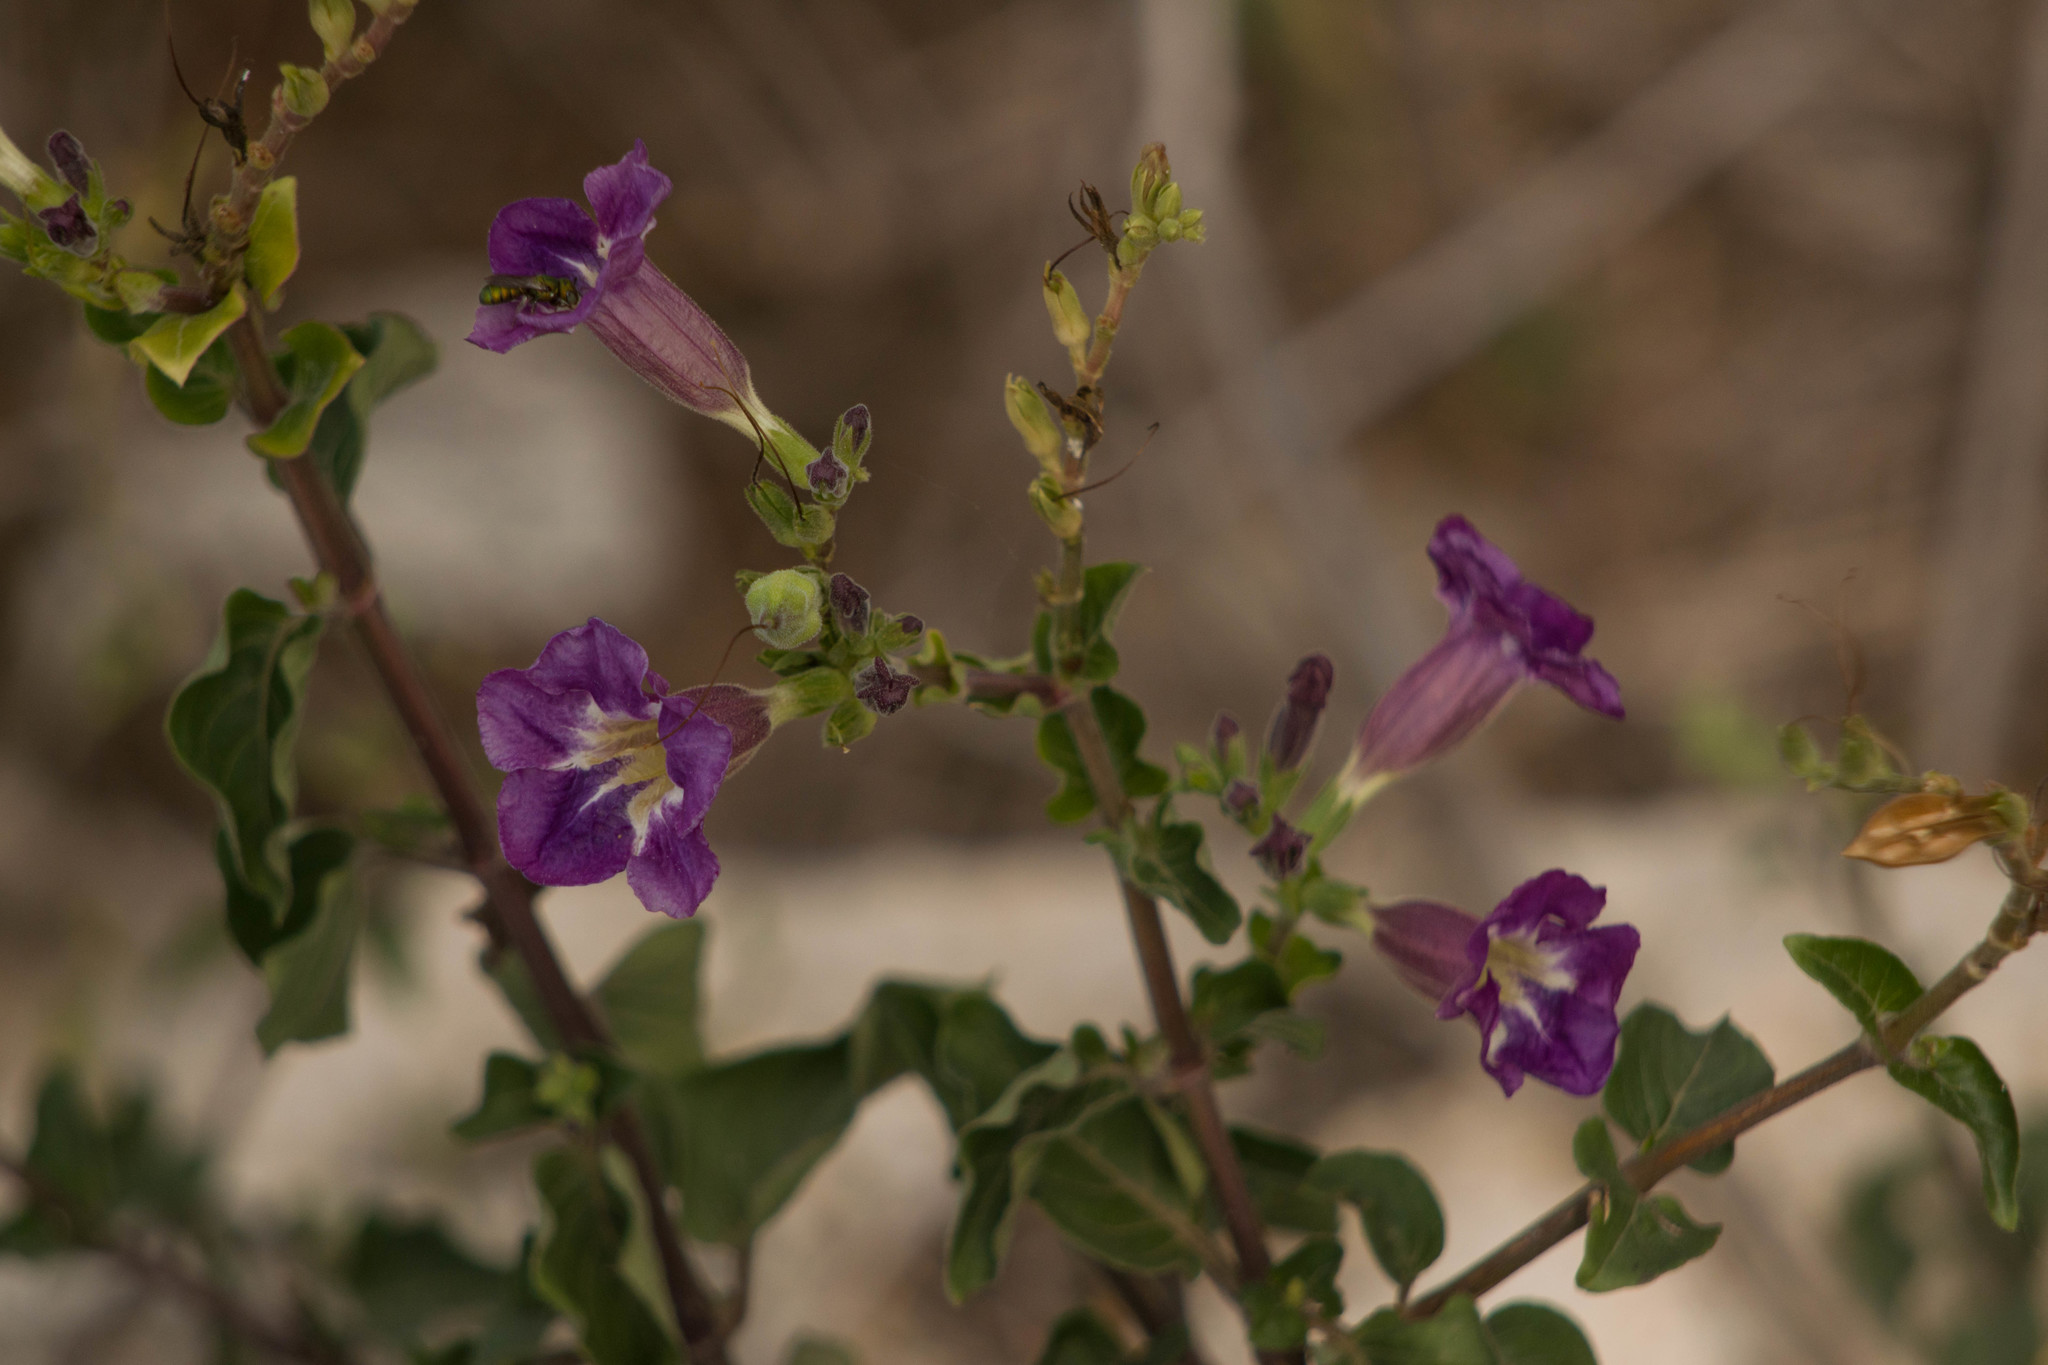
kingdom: Plantae
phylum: Tracheophyta
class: Magnoliopsida
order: Lamiales
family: Acanthaceae
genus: Asystasia
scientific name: Asystasia gangetica
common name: Chinese violet
